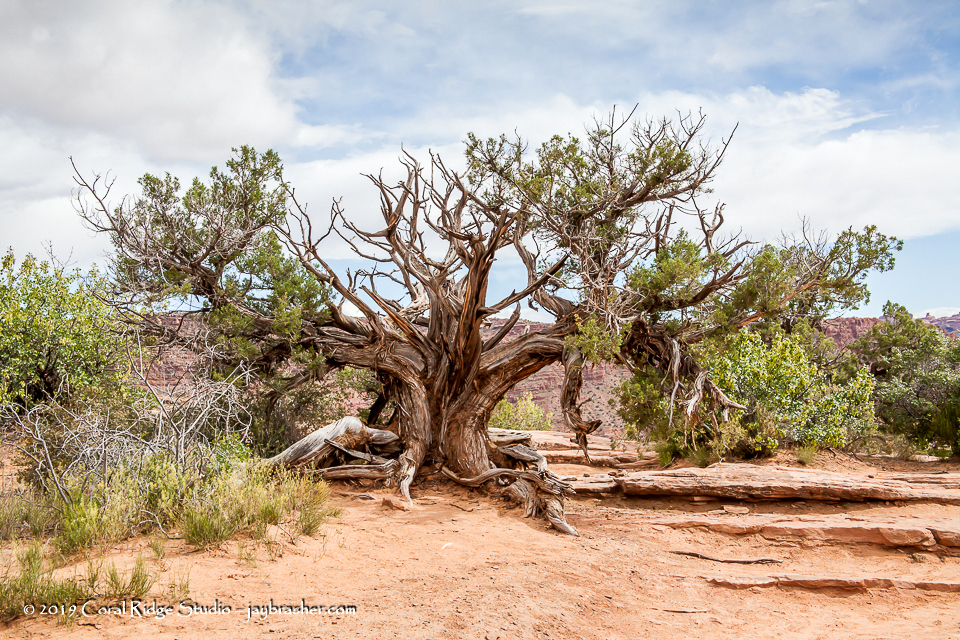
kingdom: Plantae
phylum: Tracheophyta
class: Pinopsida
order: Pinales
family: Cupressaceae
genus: Juniperus
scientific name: Juniperus osteosperma
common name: Utah juniper
